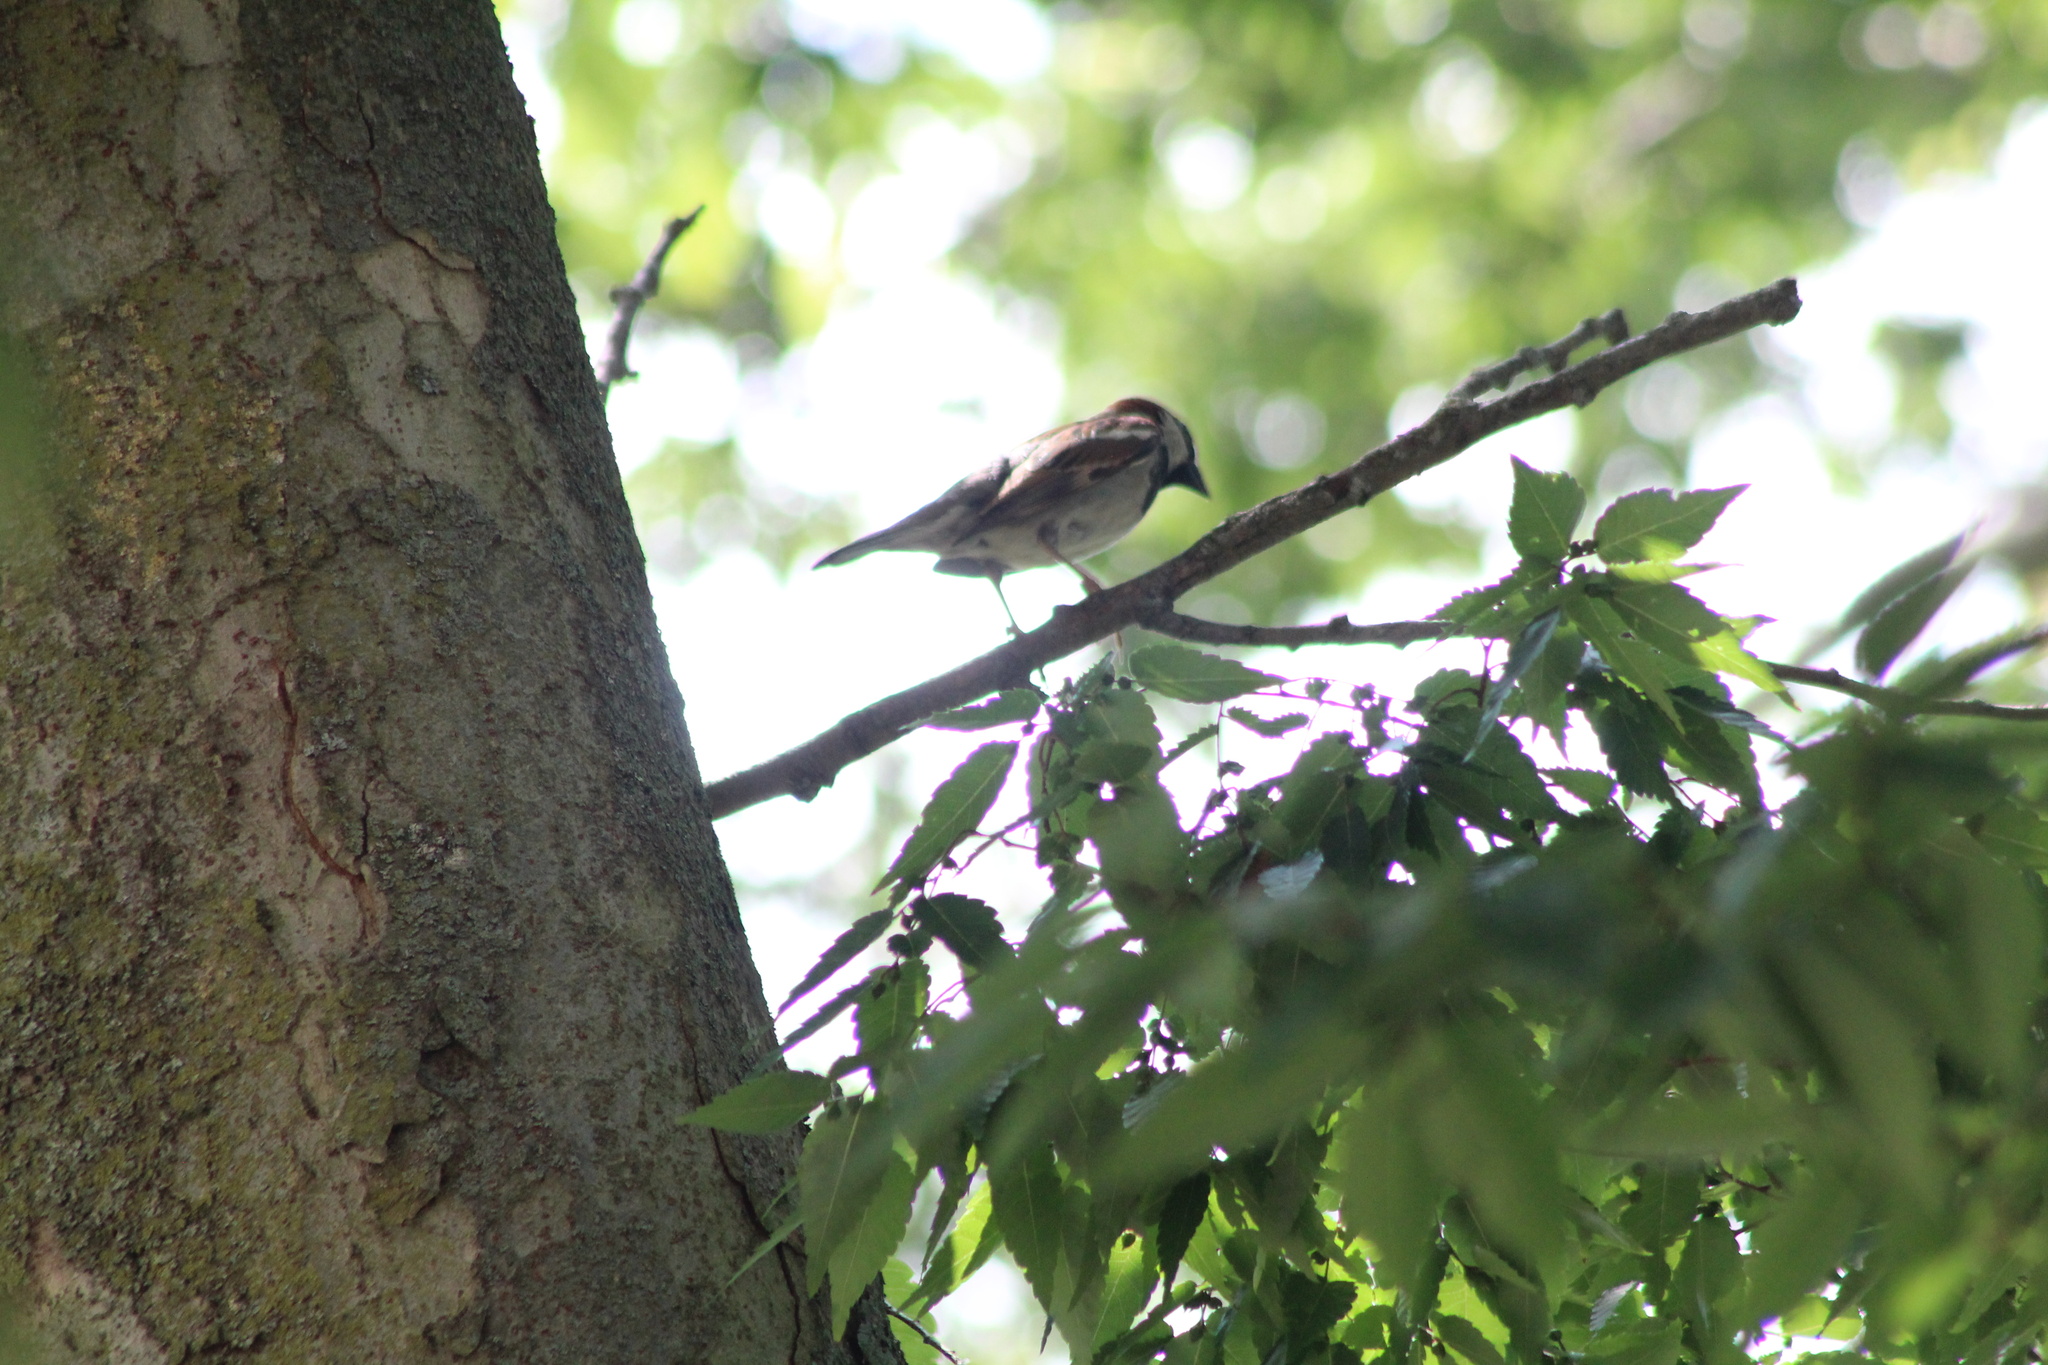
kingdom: Animalia
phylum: Chordata
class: Aves
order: Passeriformes
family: Passeridae
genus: Passer
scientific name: Passer domesticus
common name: House sparrow
